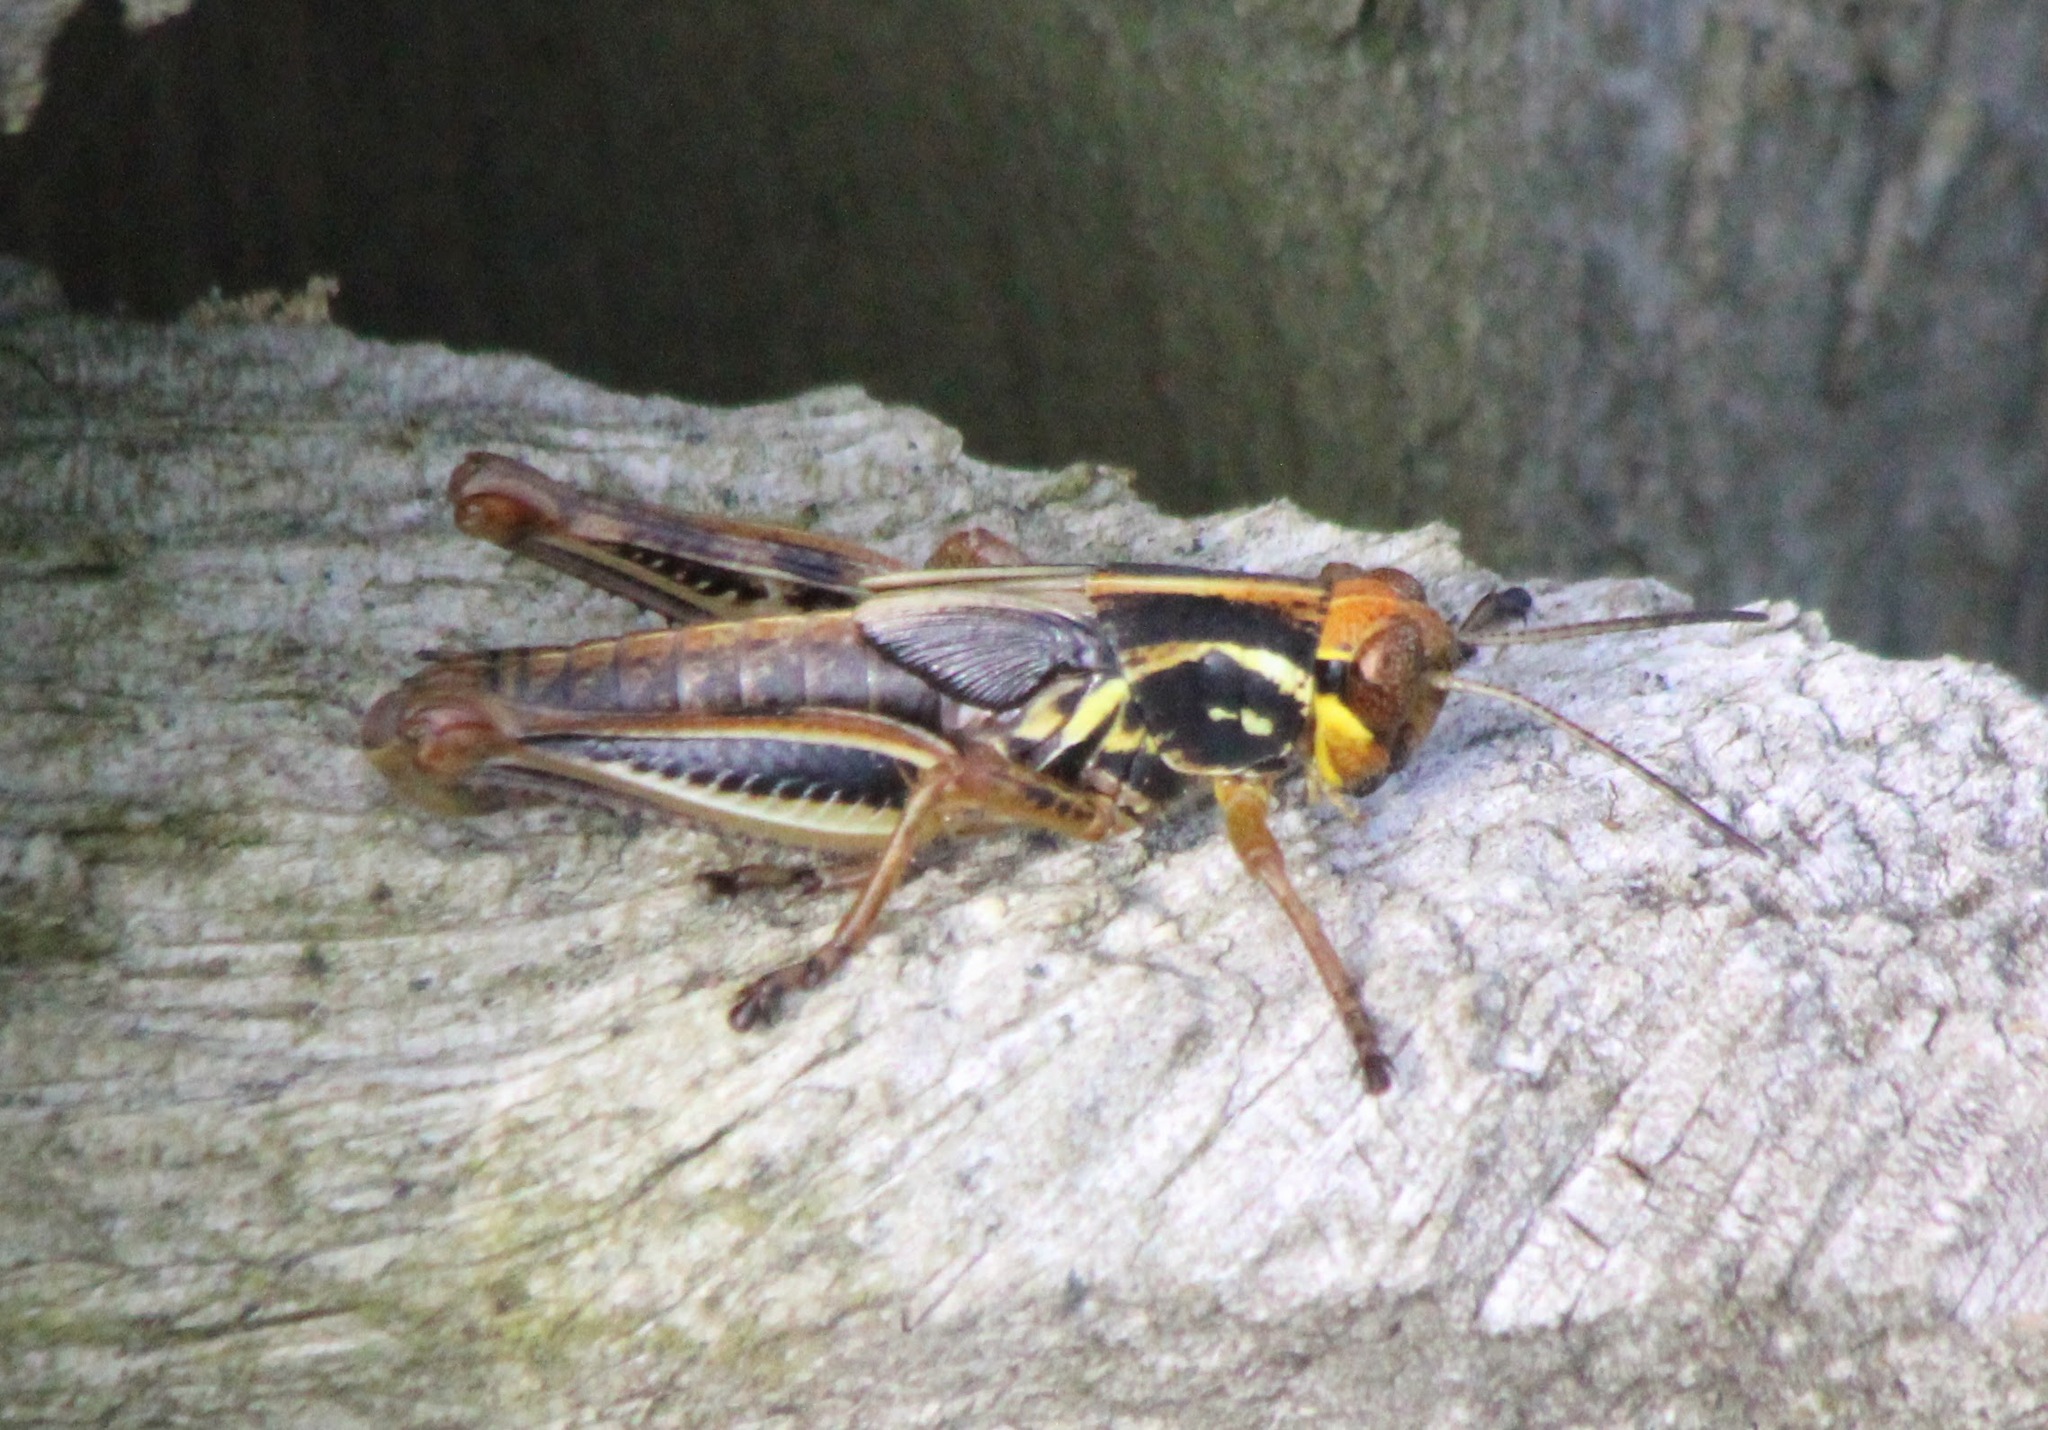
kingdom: Animalia
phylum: Arthropoda
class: Insecta
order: Orthoptera
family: Acrididae
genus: Melanoplus
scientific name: Melanoplus femurrubrum
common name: Red-legged grasshopper
